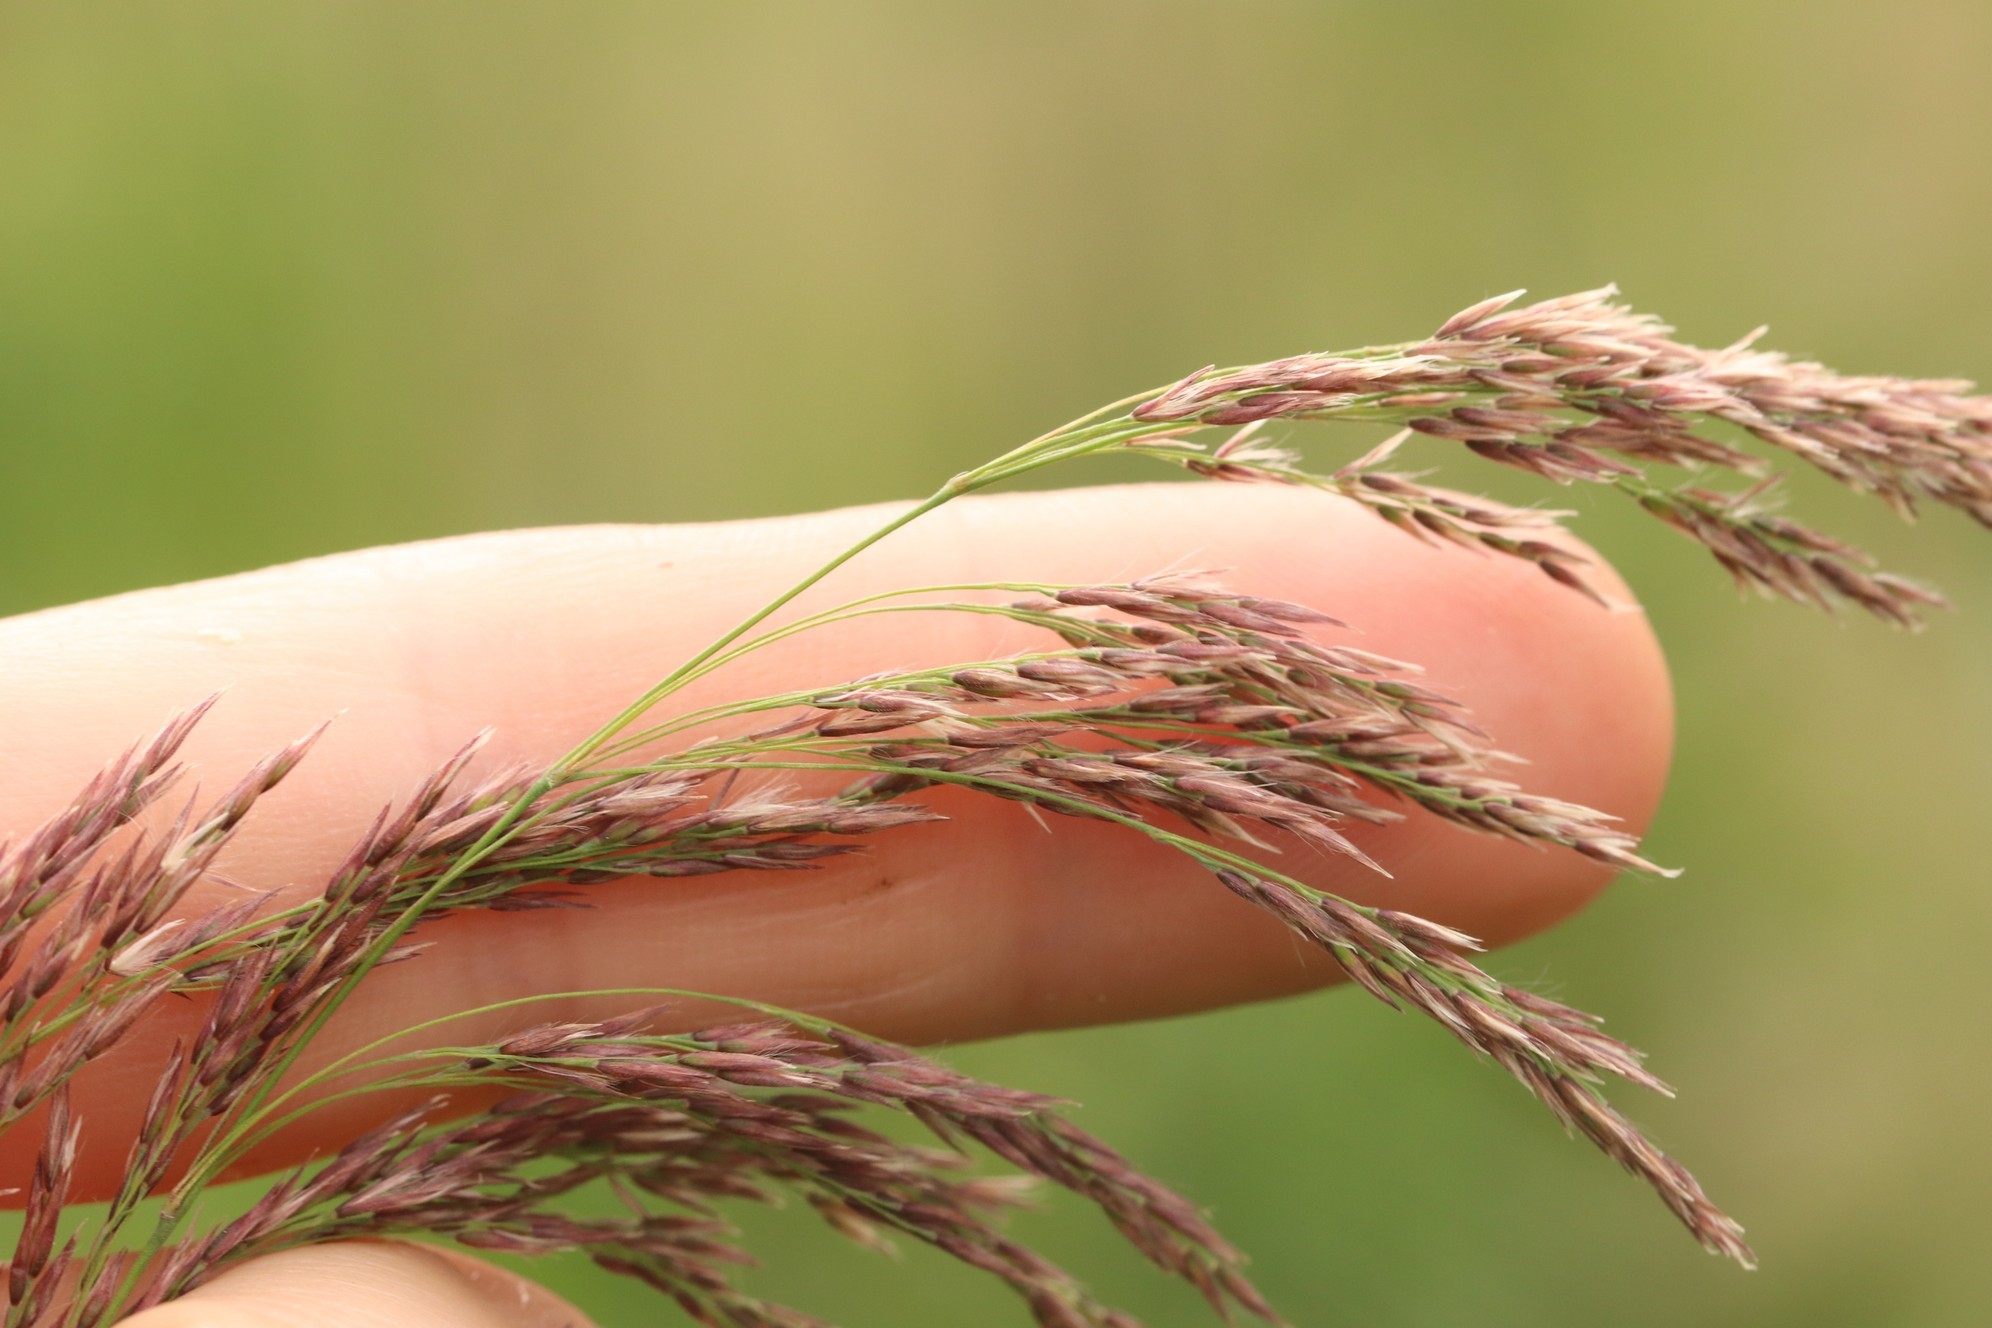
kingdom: Plantae
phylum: Tracheophyta
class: Liliopsida
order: Poales
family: Poaceae
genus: Calamagrostis
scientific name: Calamagrostis purpurea
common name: Scandinavian small-reed
